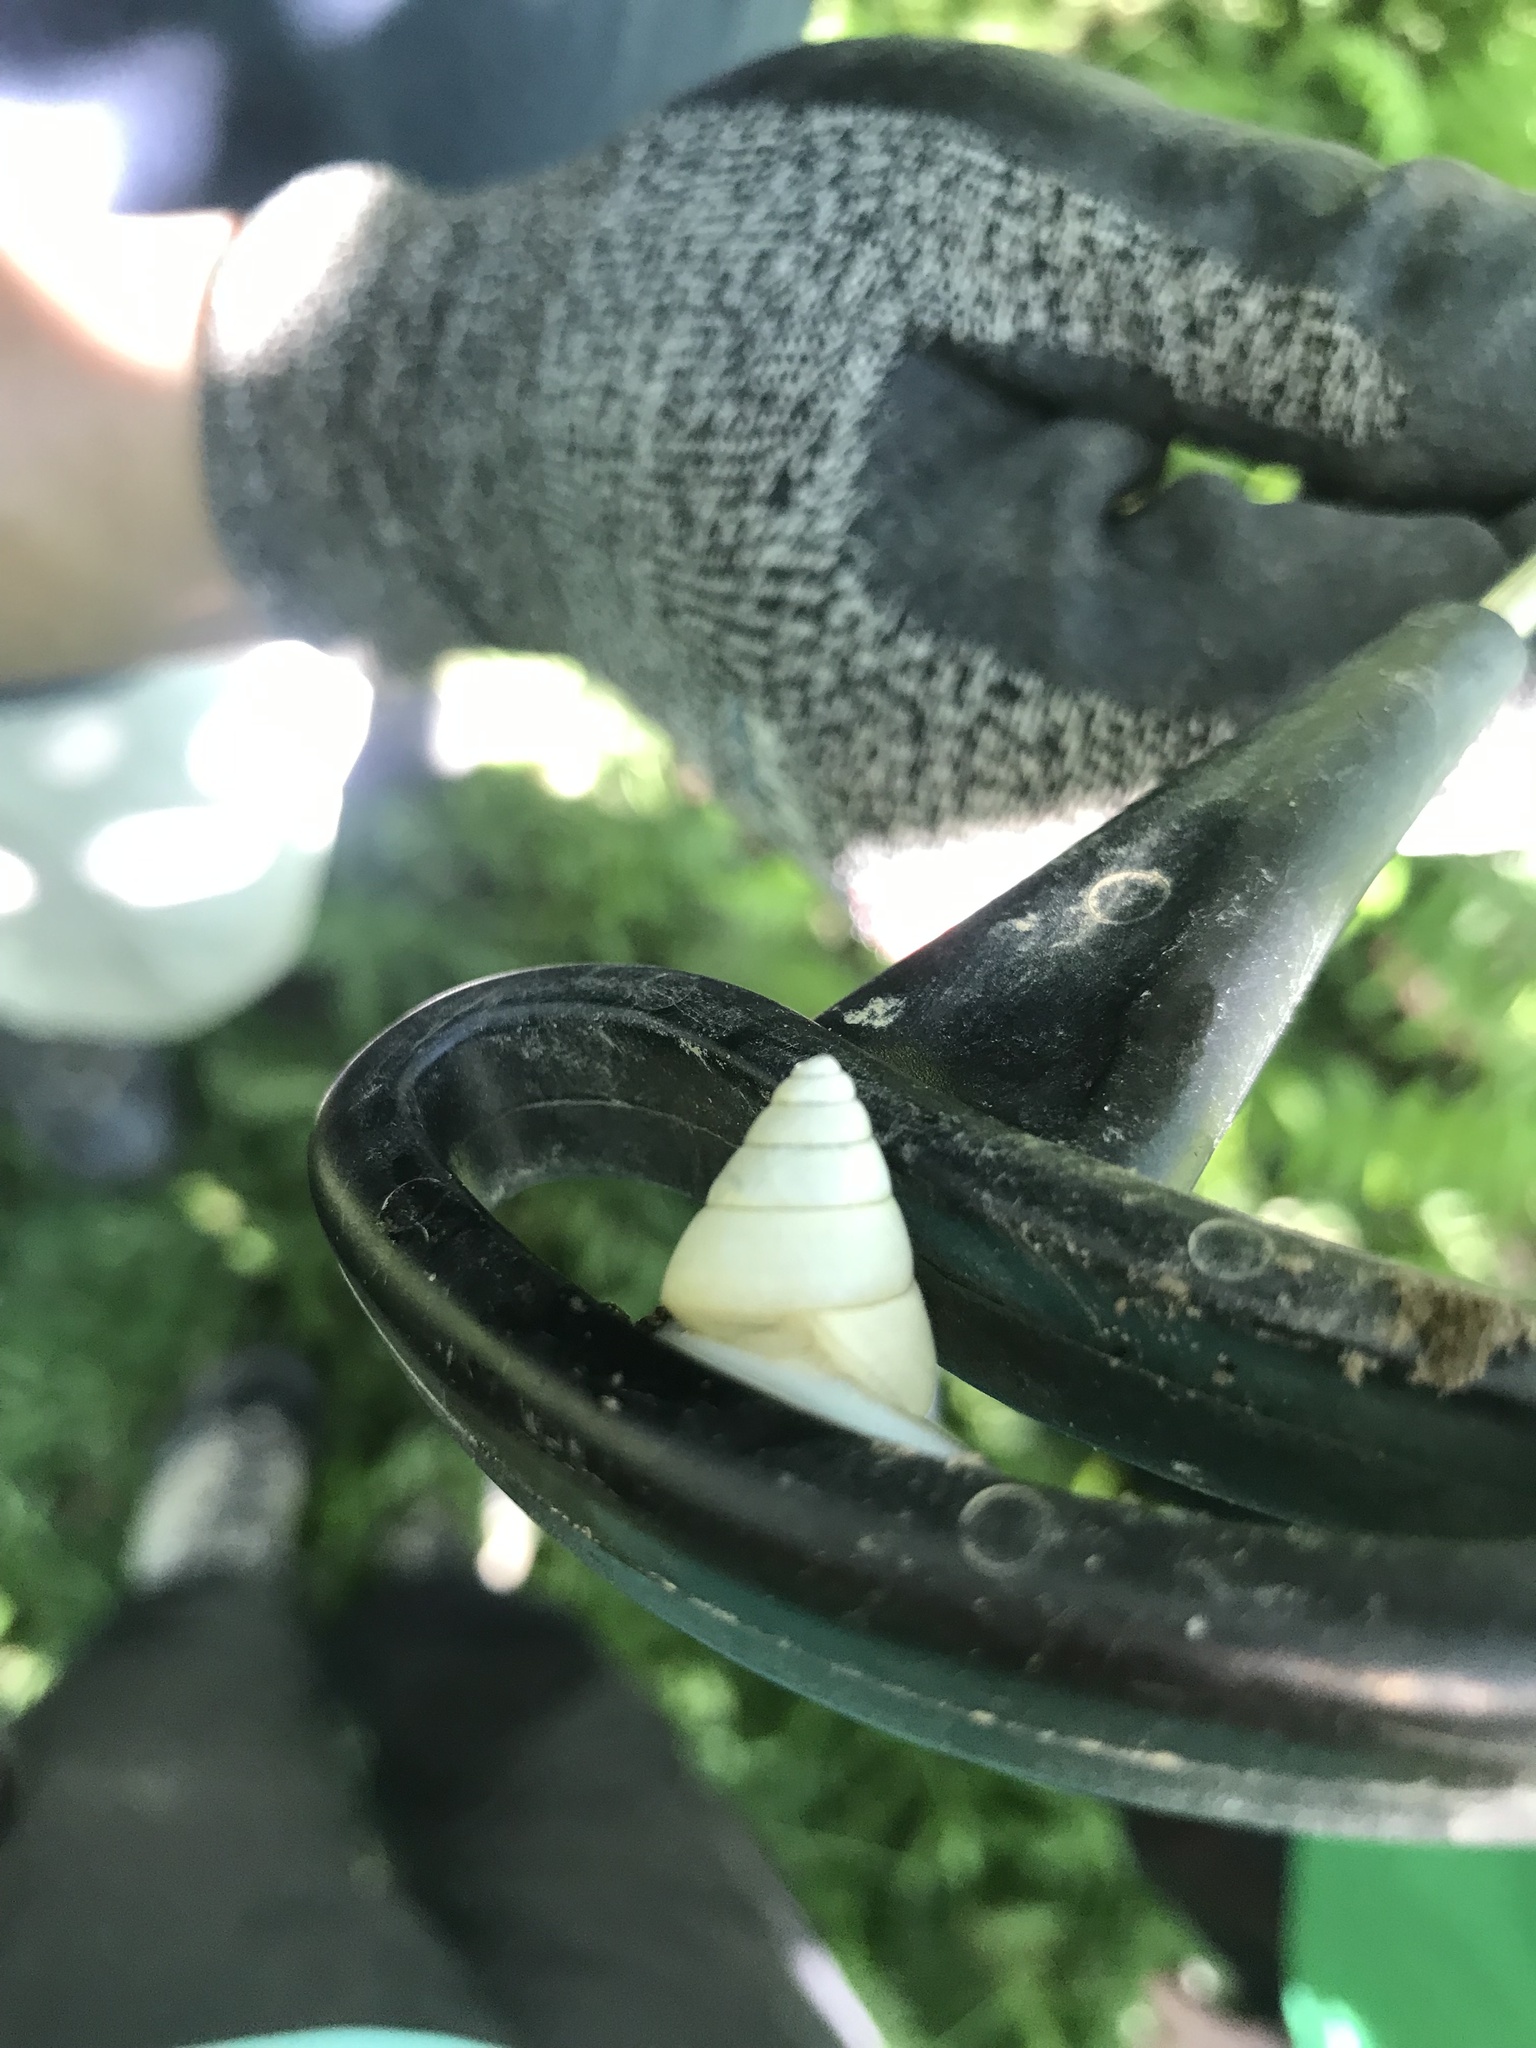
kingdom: Animalia
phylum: Mollusca
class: Gastropoda
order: Stylommatophora
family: Camaenidae
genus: Satsuma
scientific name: Satsuma luteolella
